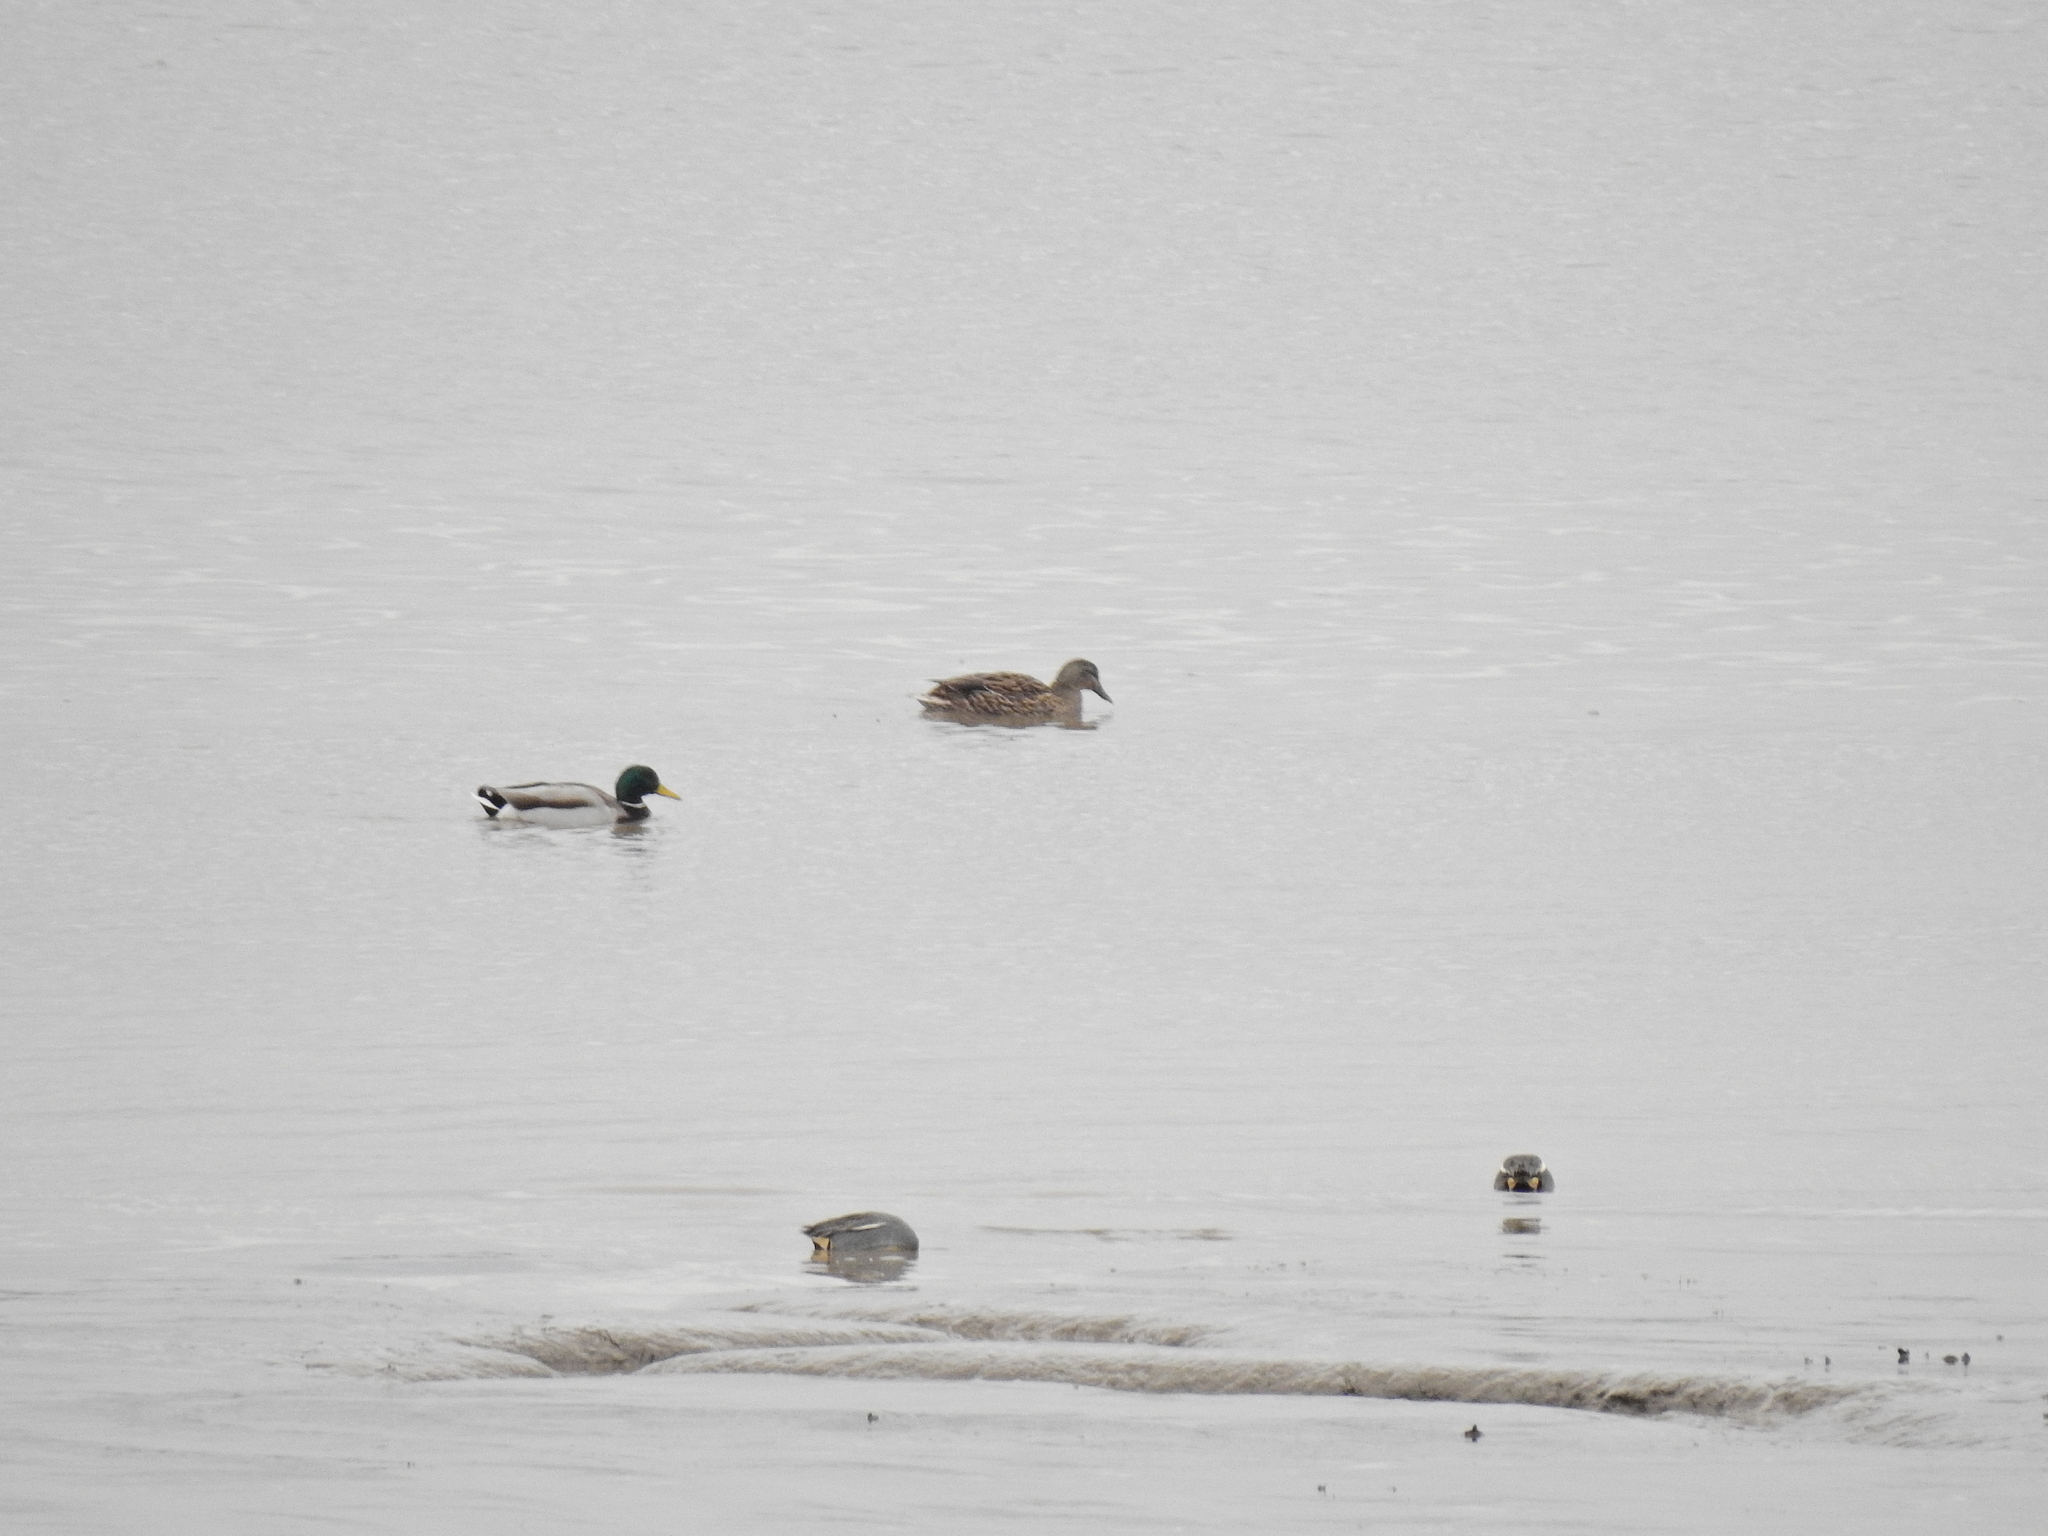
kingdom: Animalia
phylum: Chordata
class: Aves
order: Anseriformes
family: Anatidae
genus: Anas
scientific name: Anas platyrhynchos
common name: Mallard
